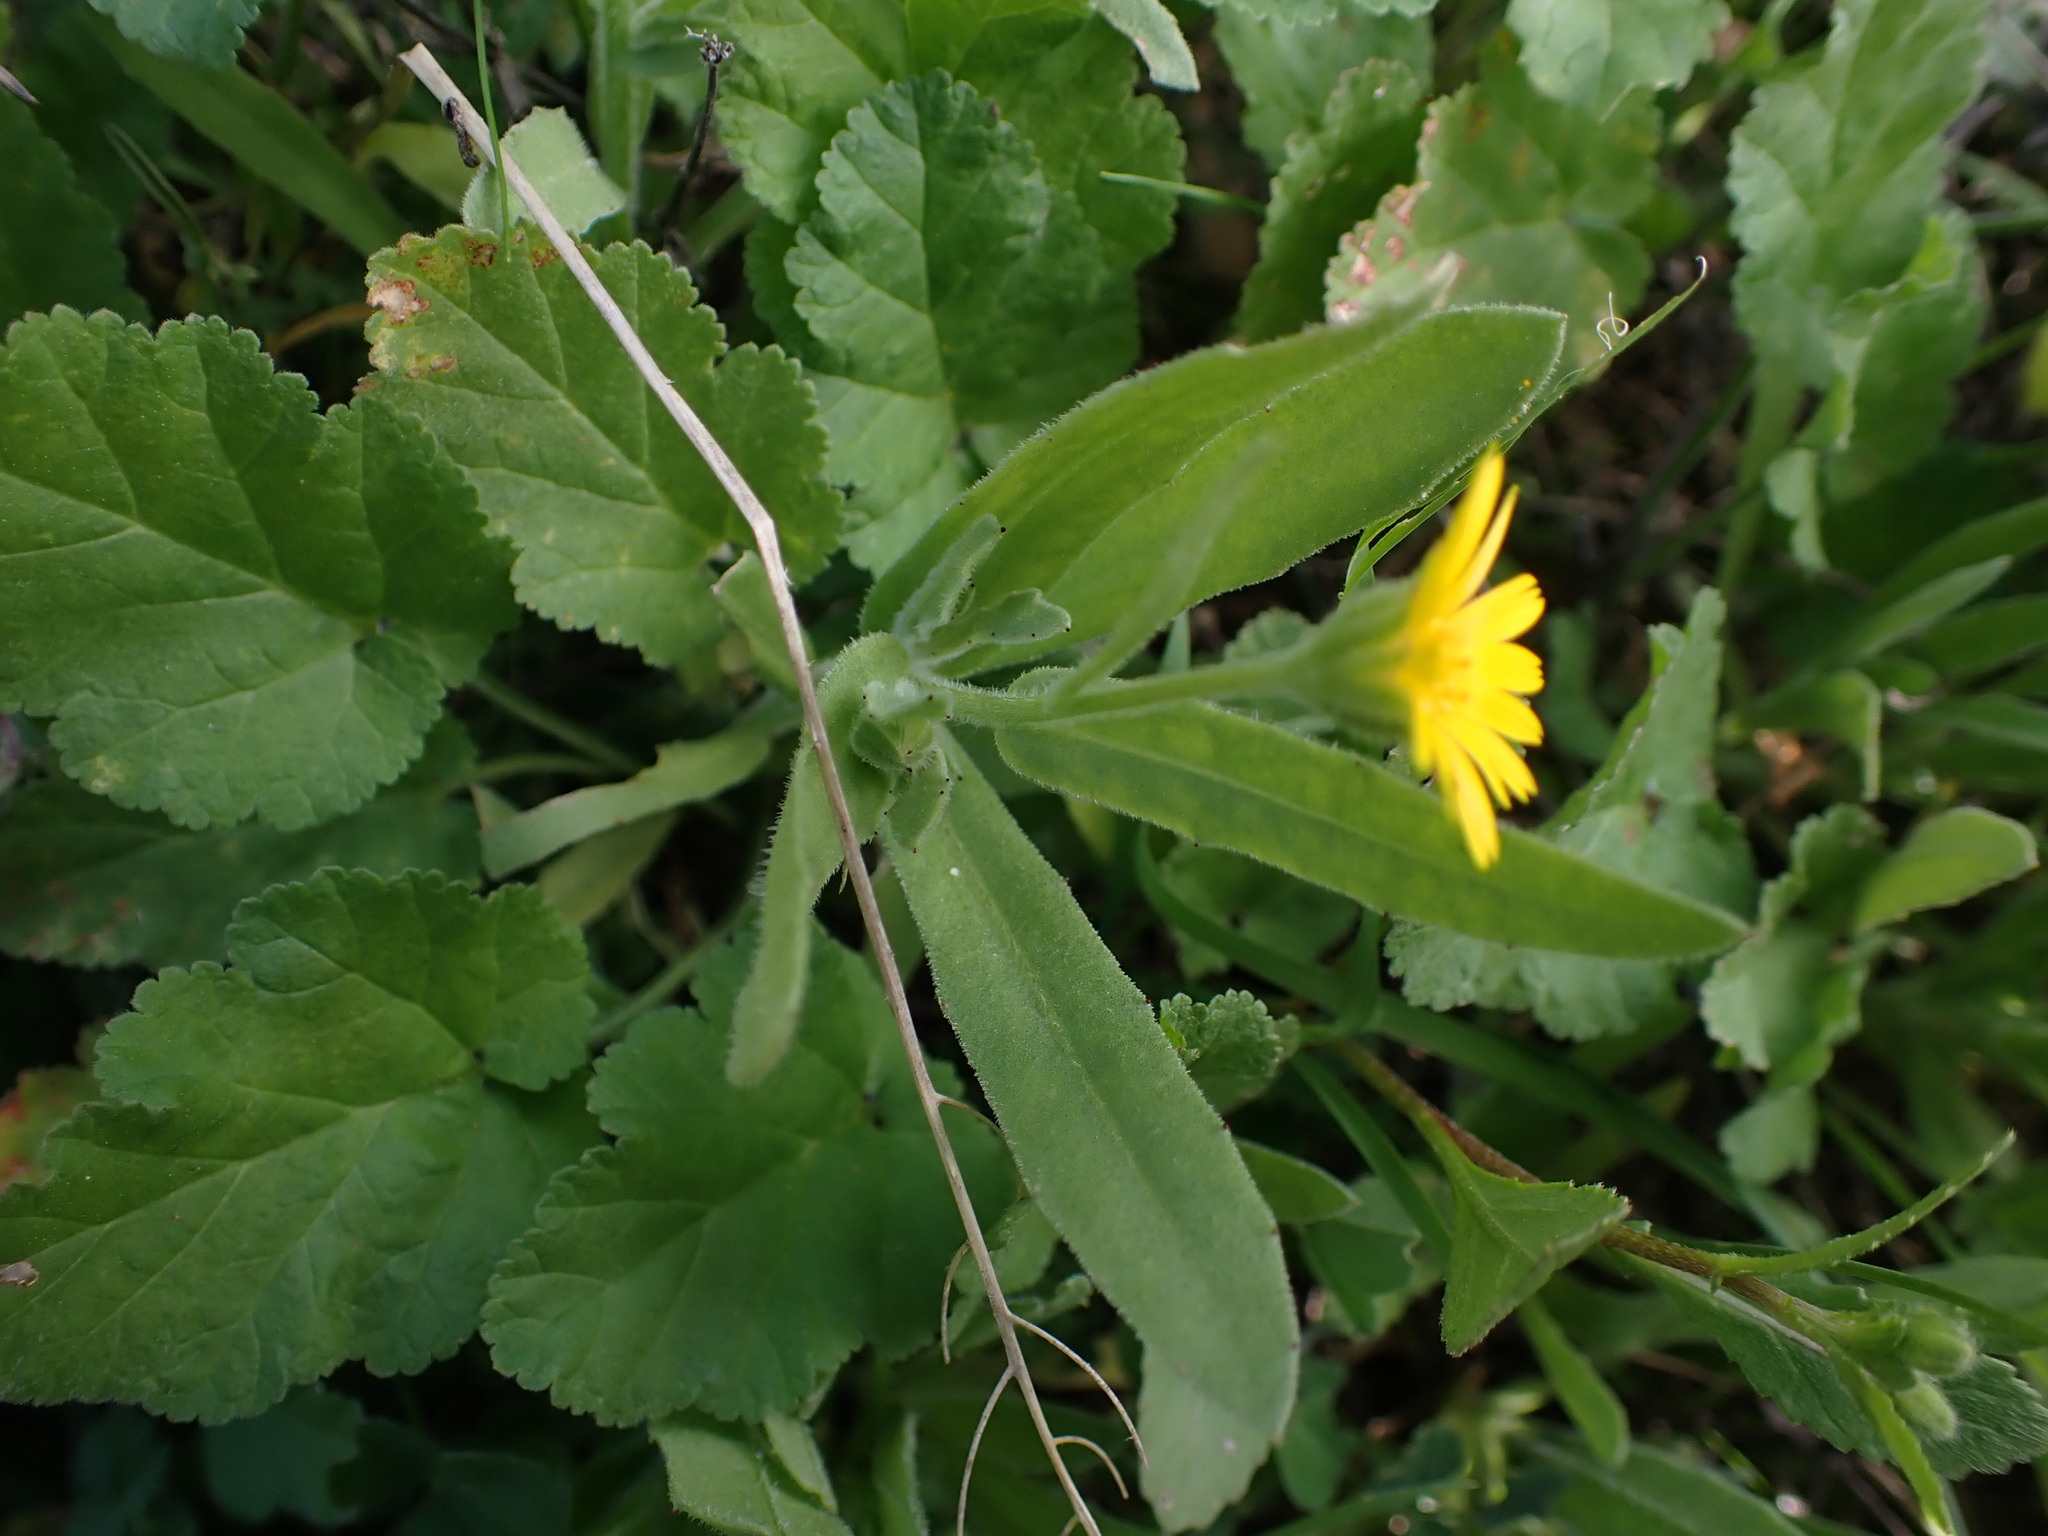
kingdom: Plantae
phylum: Tracheophyta
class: Magnoliopsida
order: Asterales
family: Asteraceae
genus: Calendula
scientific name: Calendula arvensis
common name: Field marigold
